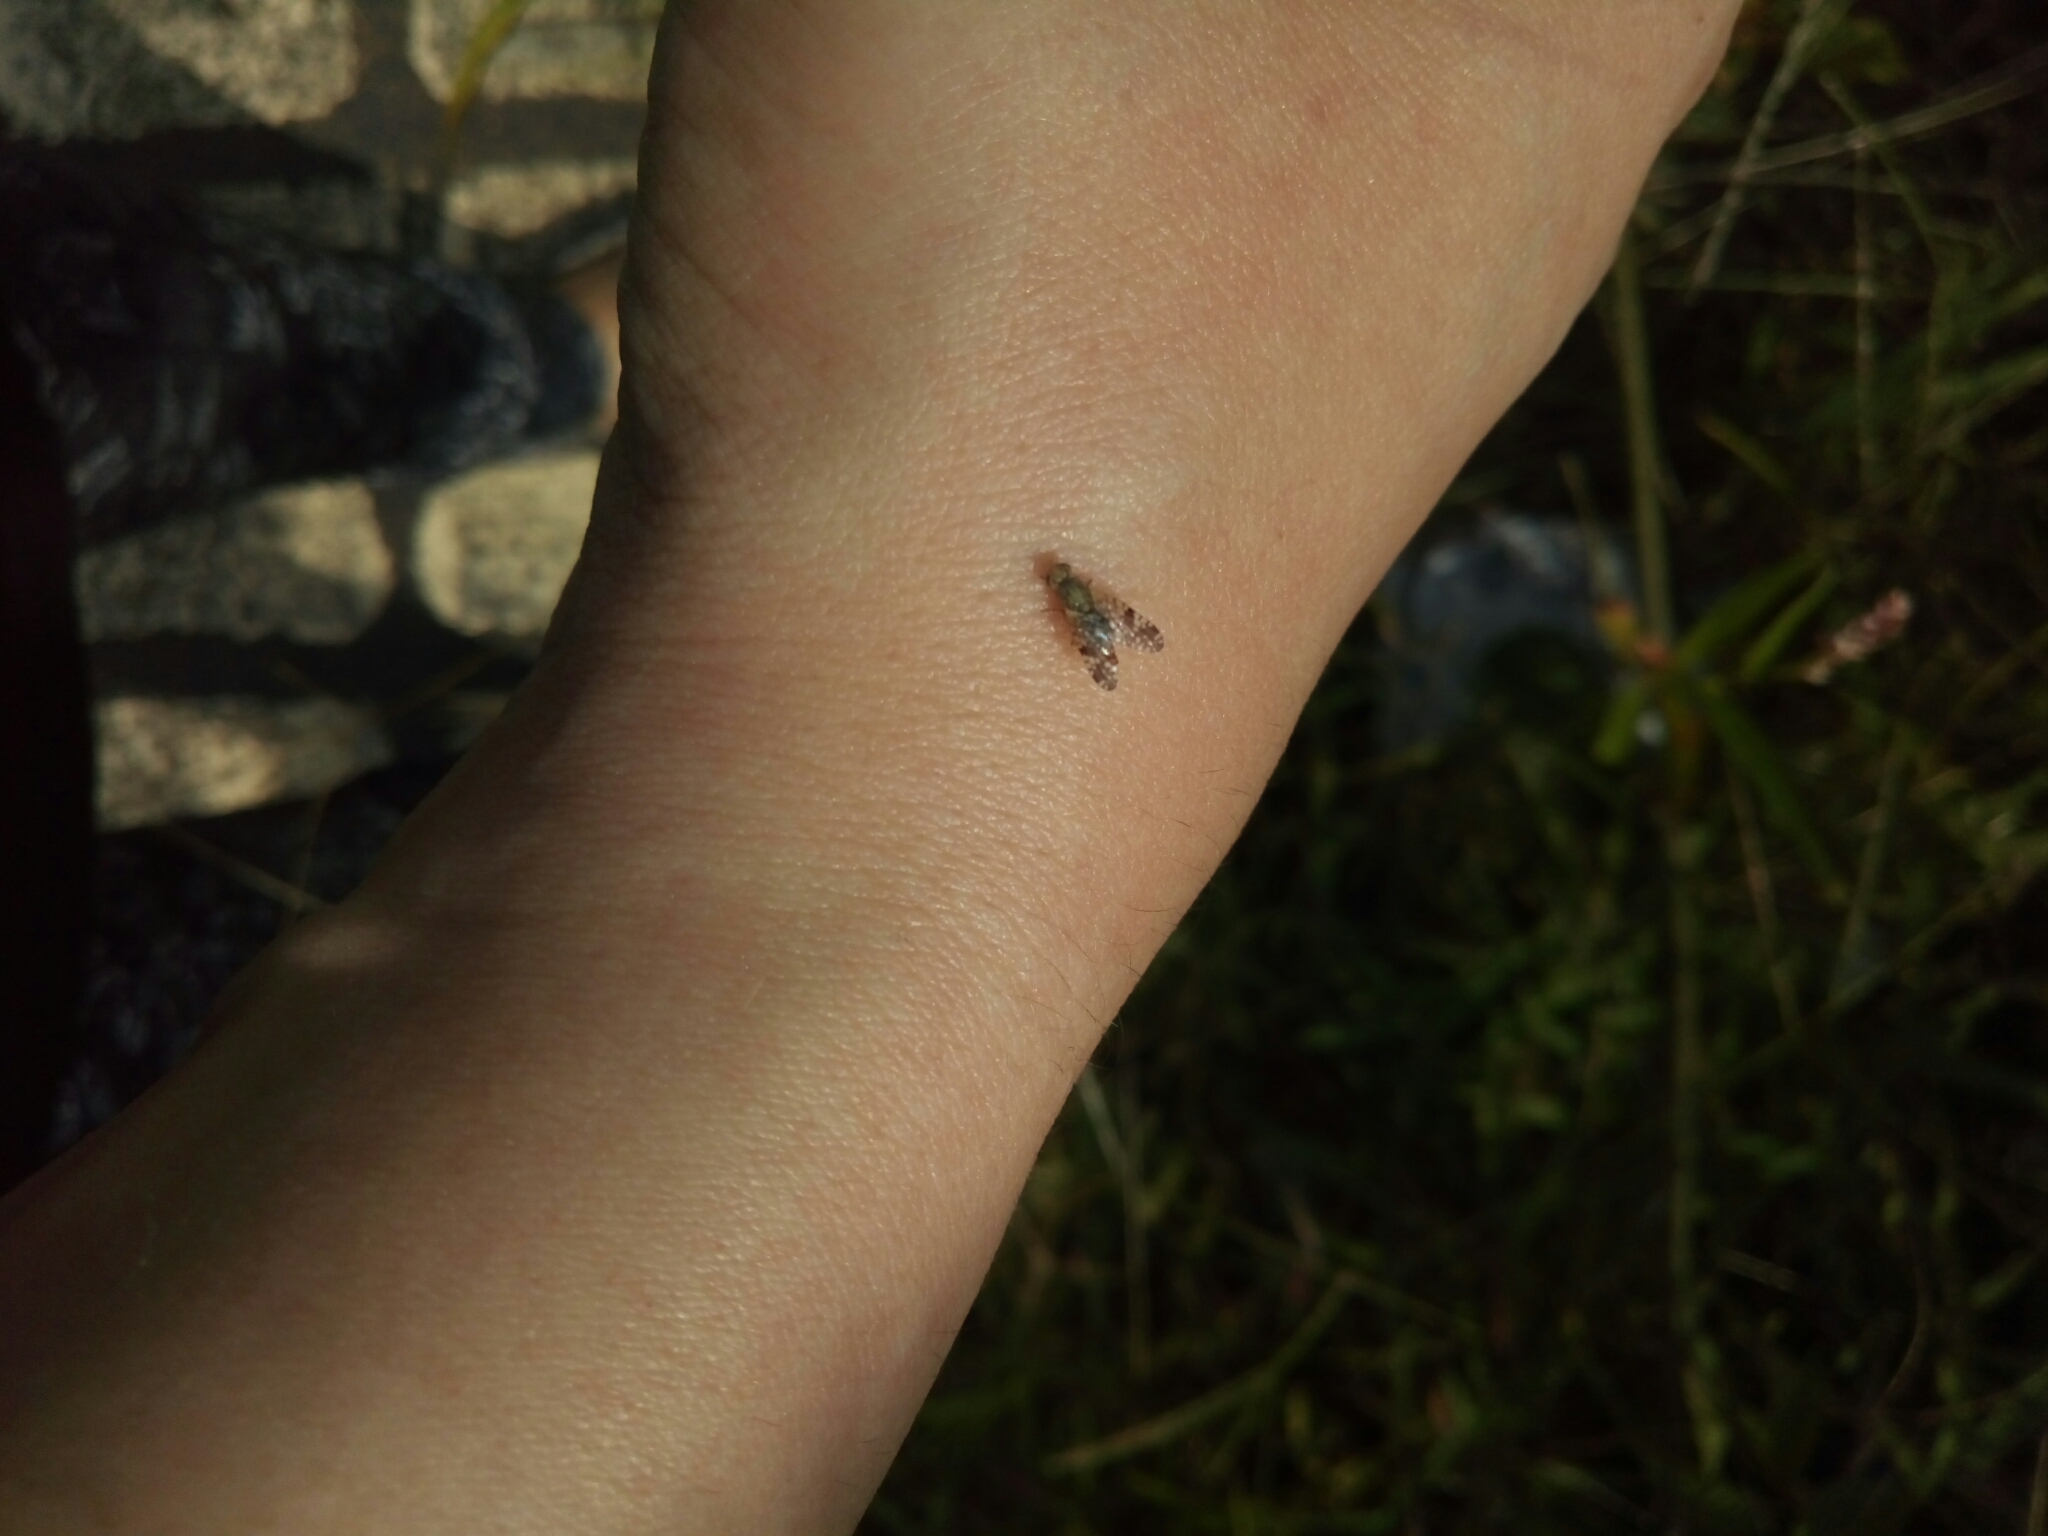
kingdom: Animalia
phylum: Arthropoda
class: Insecta
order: Diptera
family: Tephritidae
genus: Neotephritis
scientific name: Neotephritis finalis
